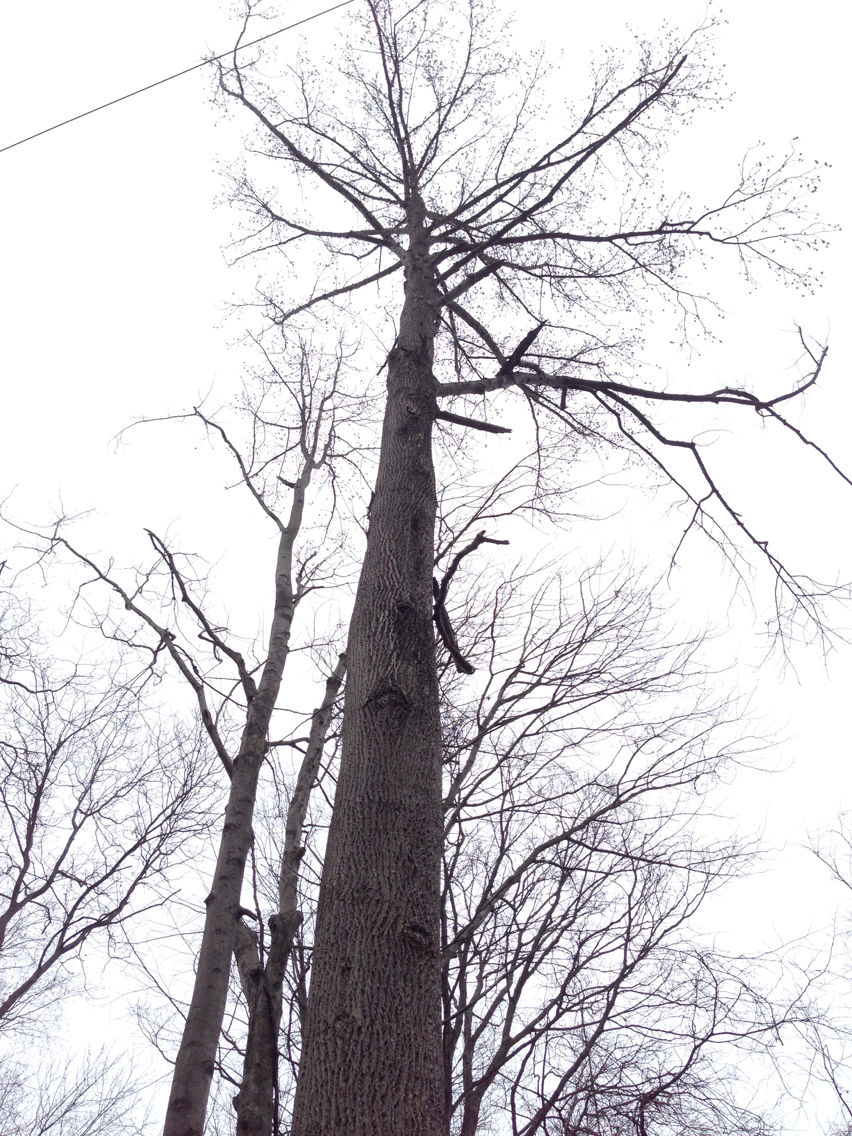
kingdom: Plantae
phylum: Tracheophyta
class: Magnoliopsida
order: Magnoliales
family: Magnoliaceae
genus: Liriodendron
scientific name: Liriodendron tulipifera
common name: Tulip tree
